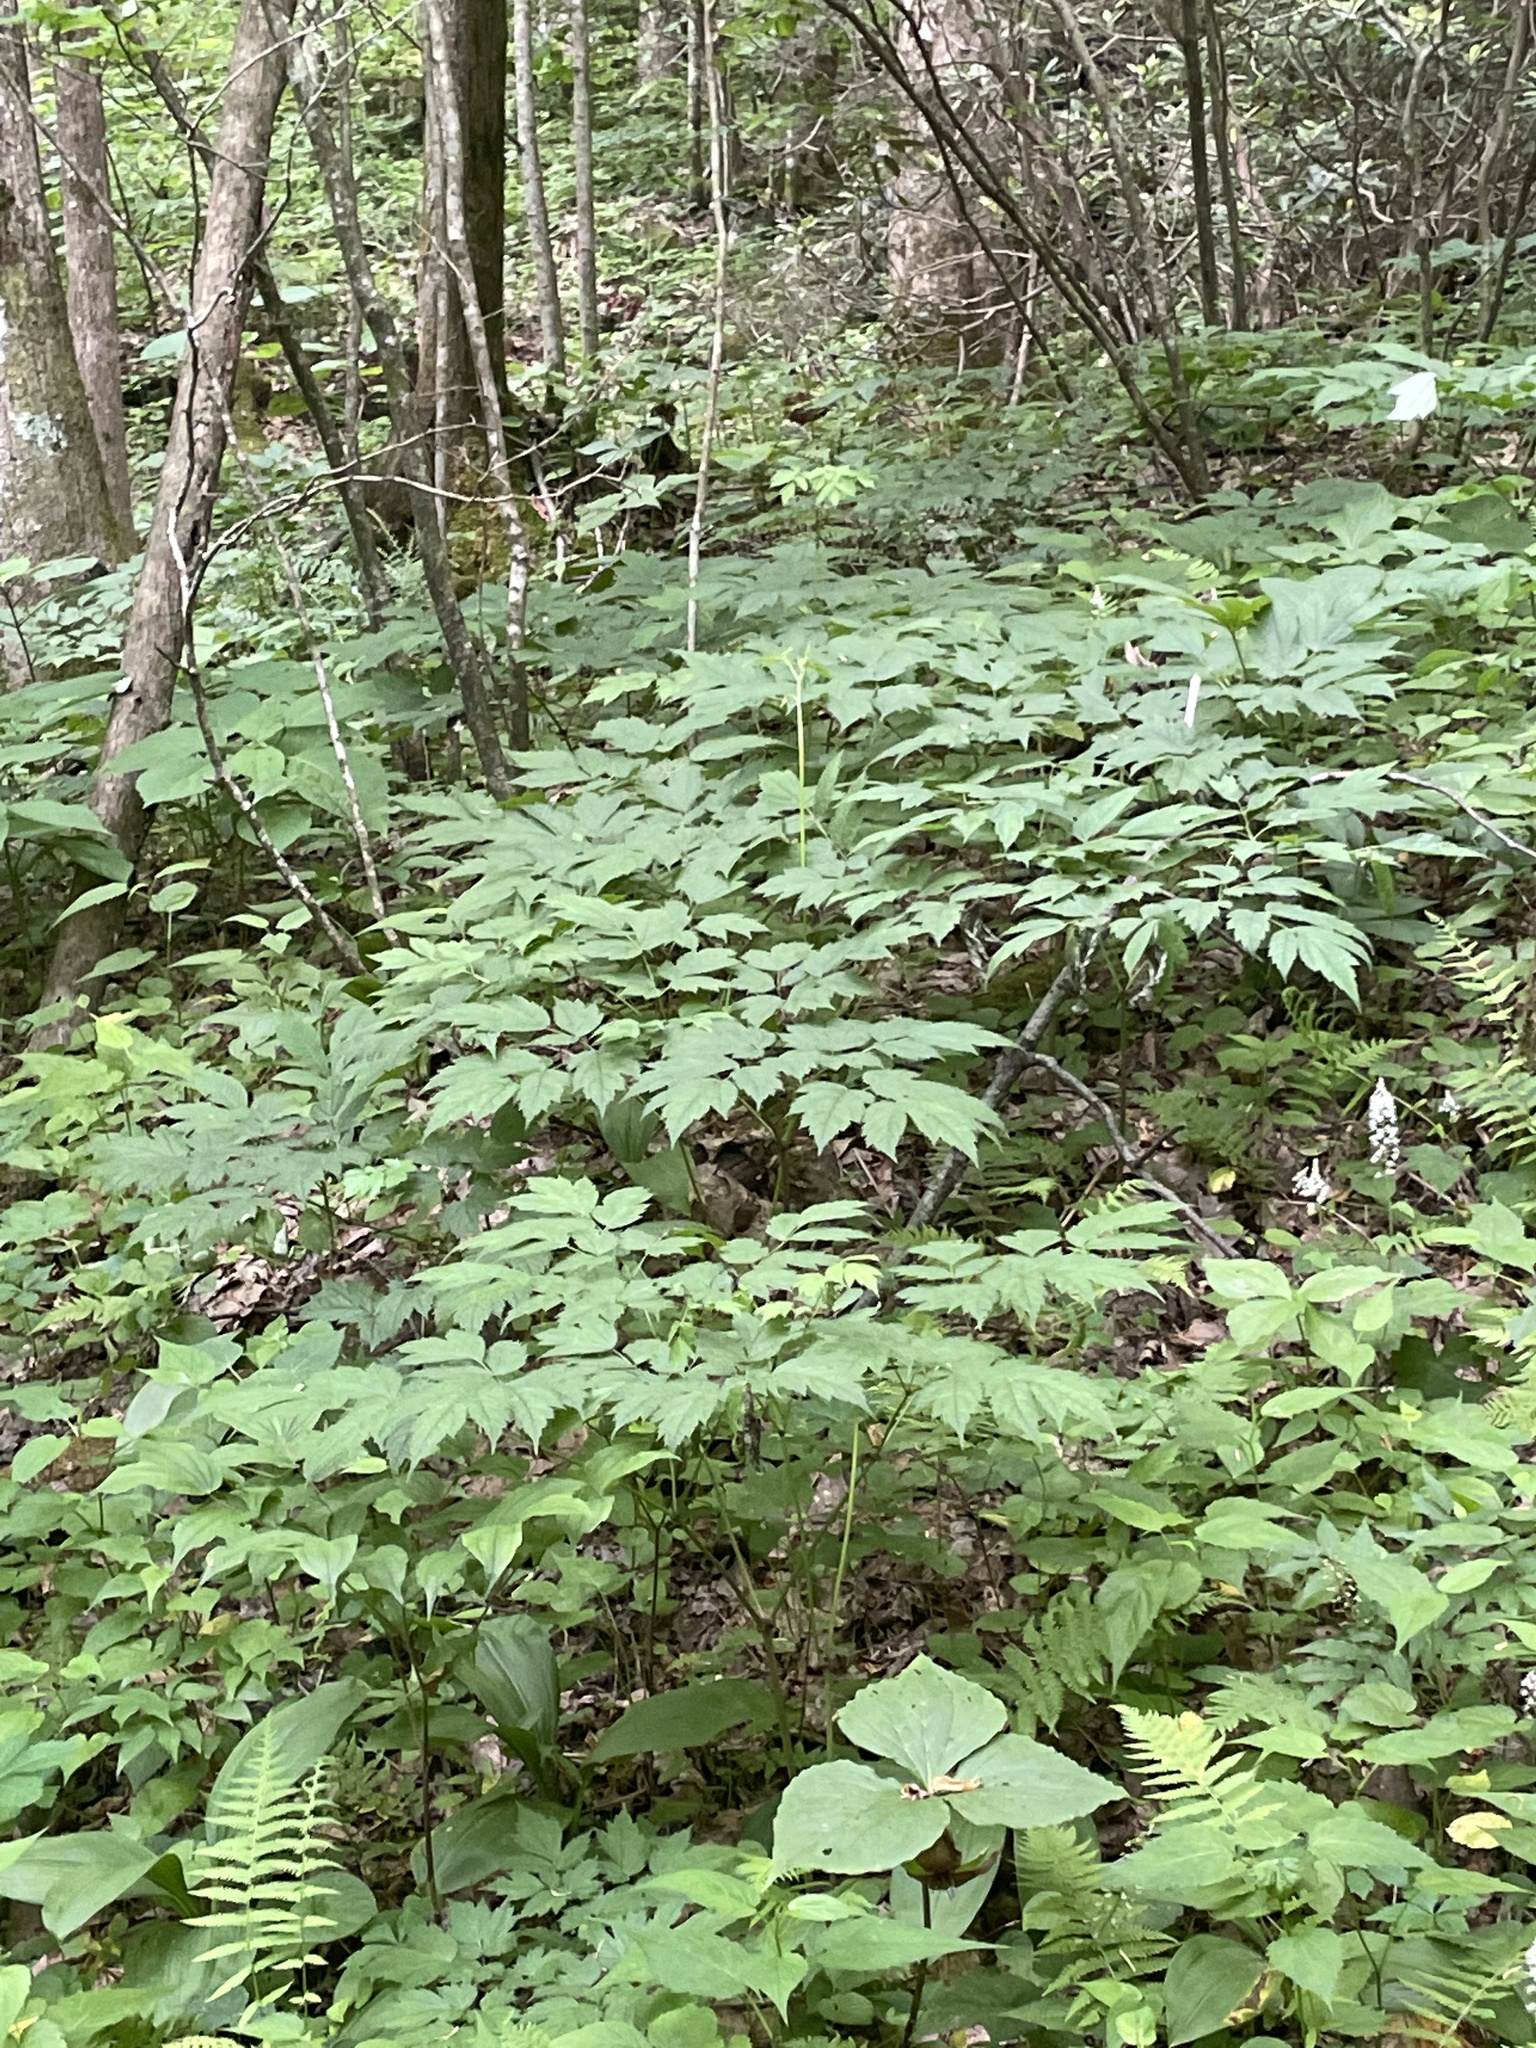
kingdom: Plantae
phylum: Tracheophyta
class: Magnoliopsida
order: Ranunculales
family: Ranunculaceae
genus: Actaea
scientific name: Actaea racemosa
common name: Black cohosh
